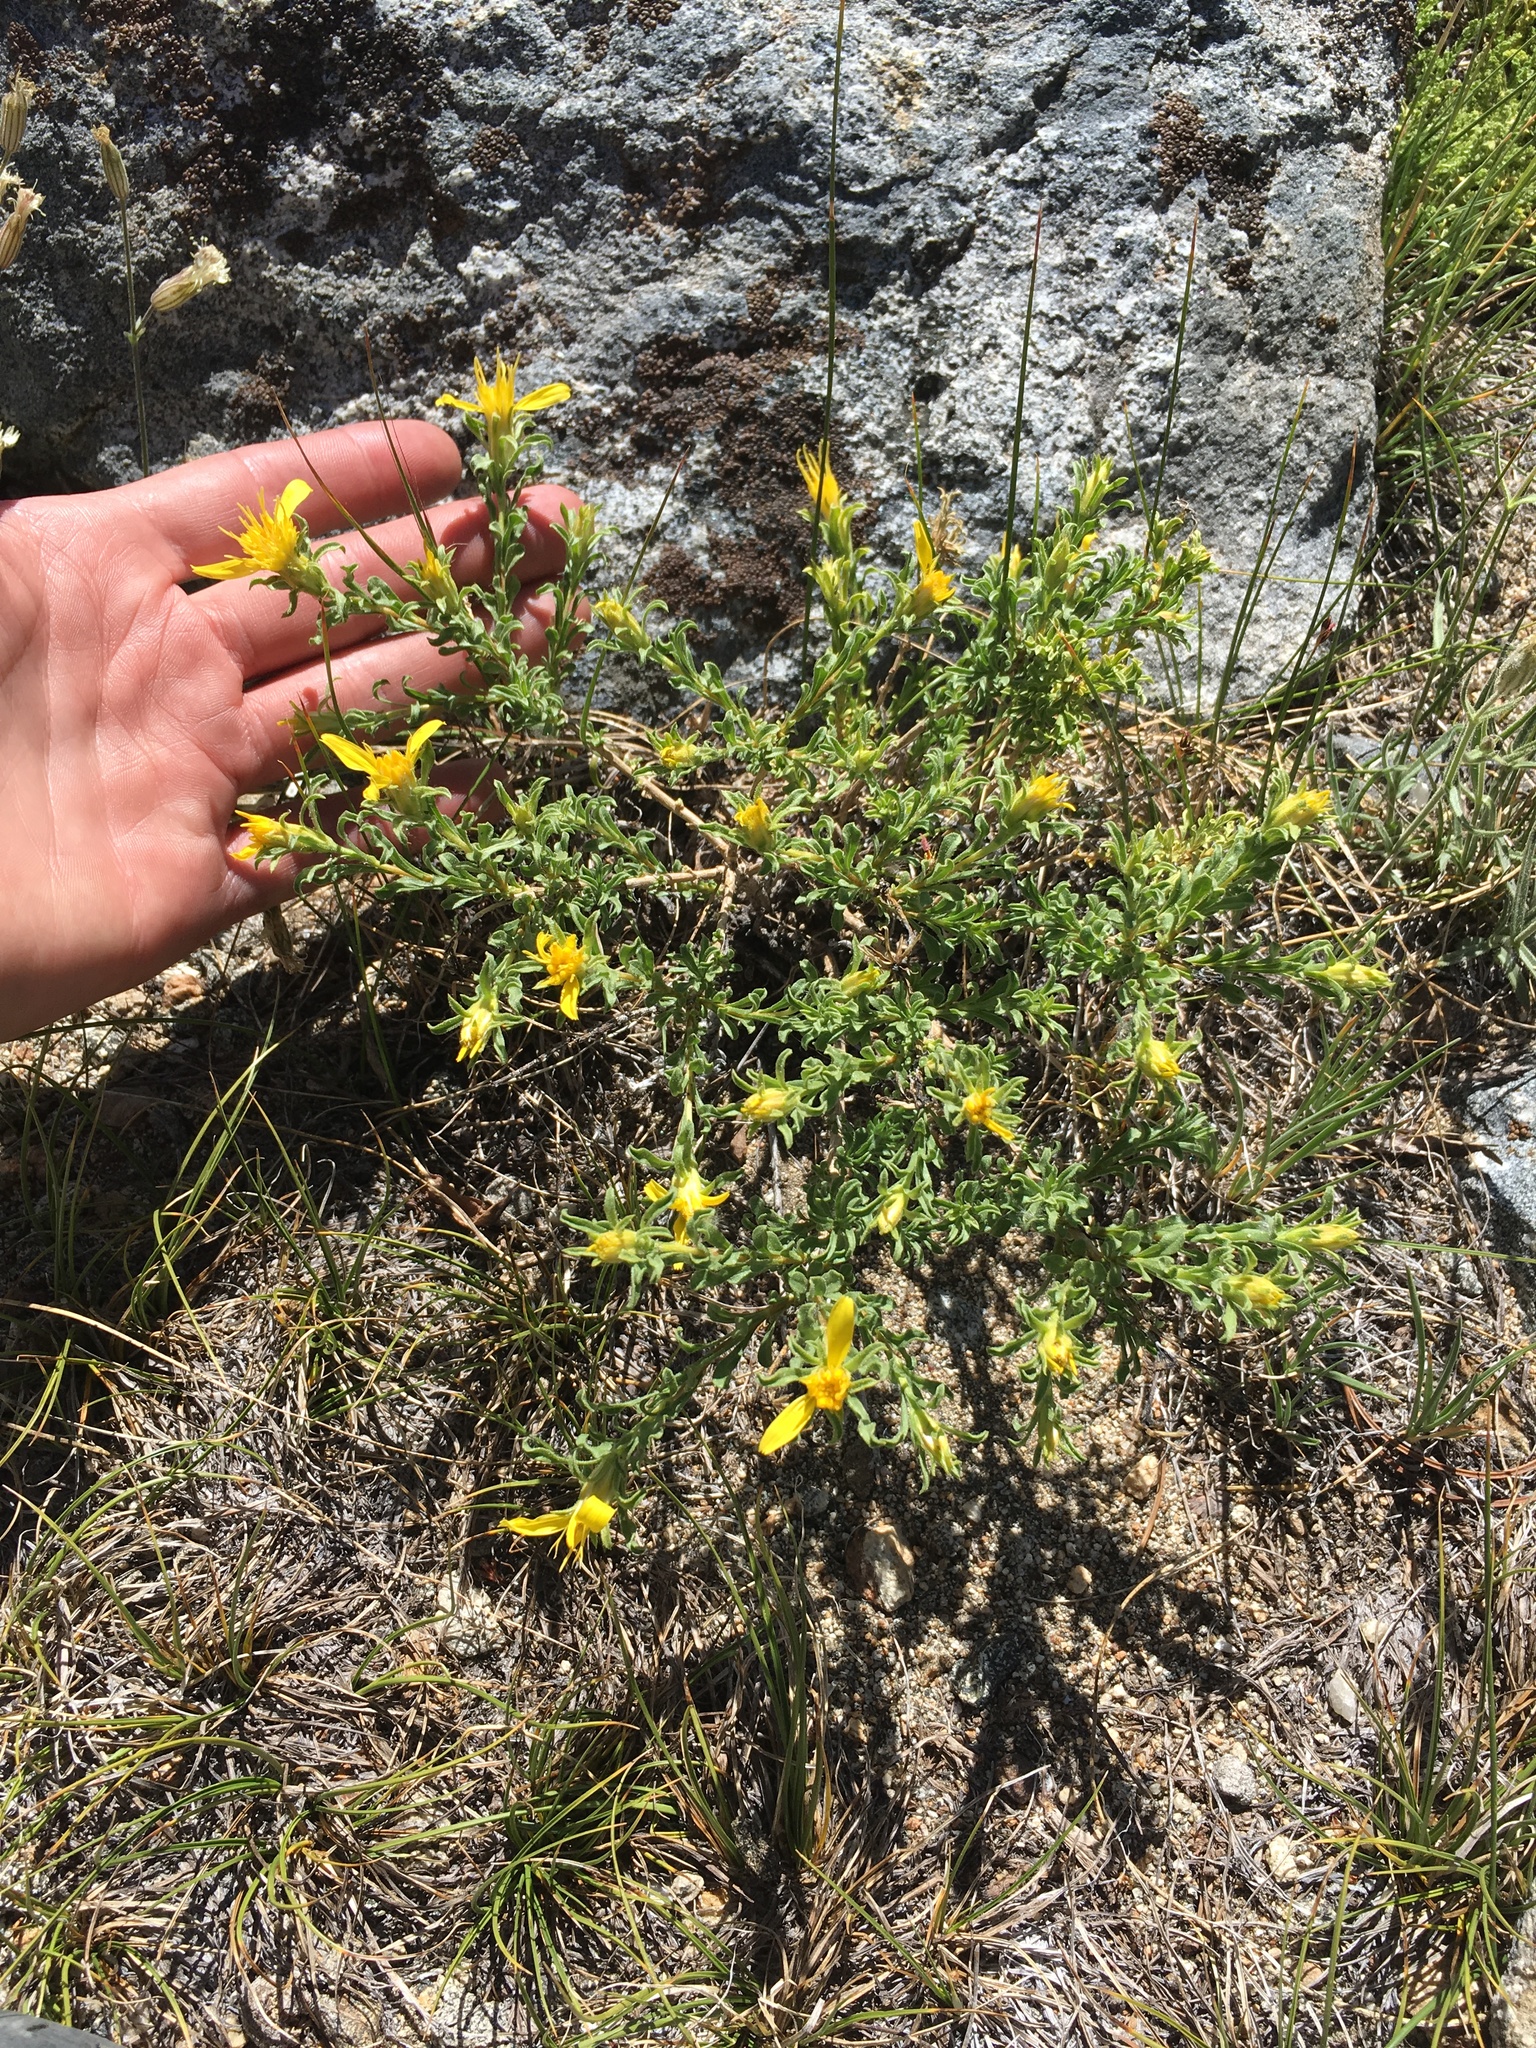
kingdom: Plantae
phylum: Tracheophyta
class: Magnoliopsida
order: Asterales
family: Asteraceae
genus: Ericameria
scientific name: Ericameria suffruticosa
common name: Goldenweed
